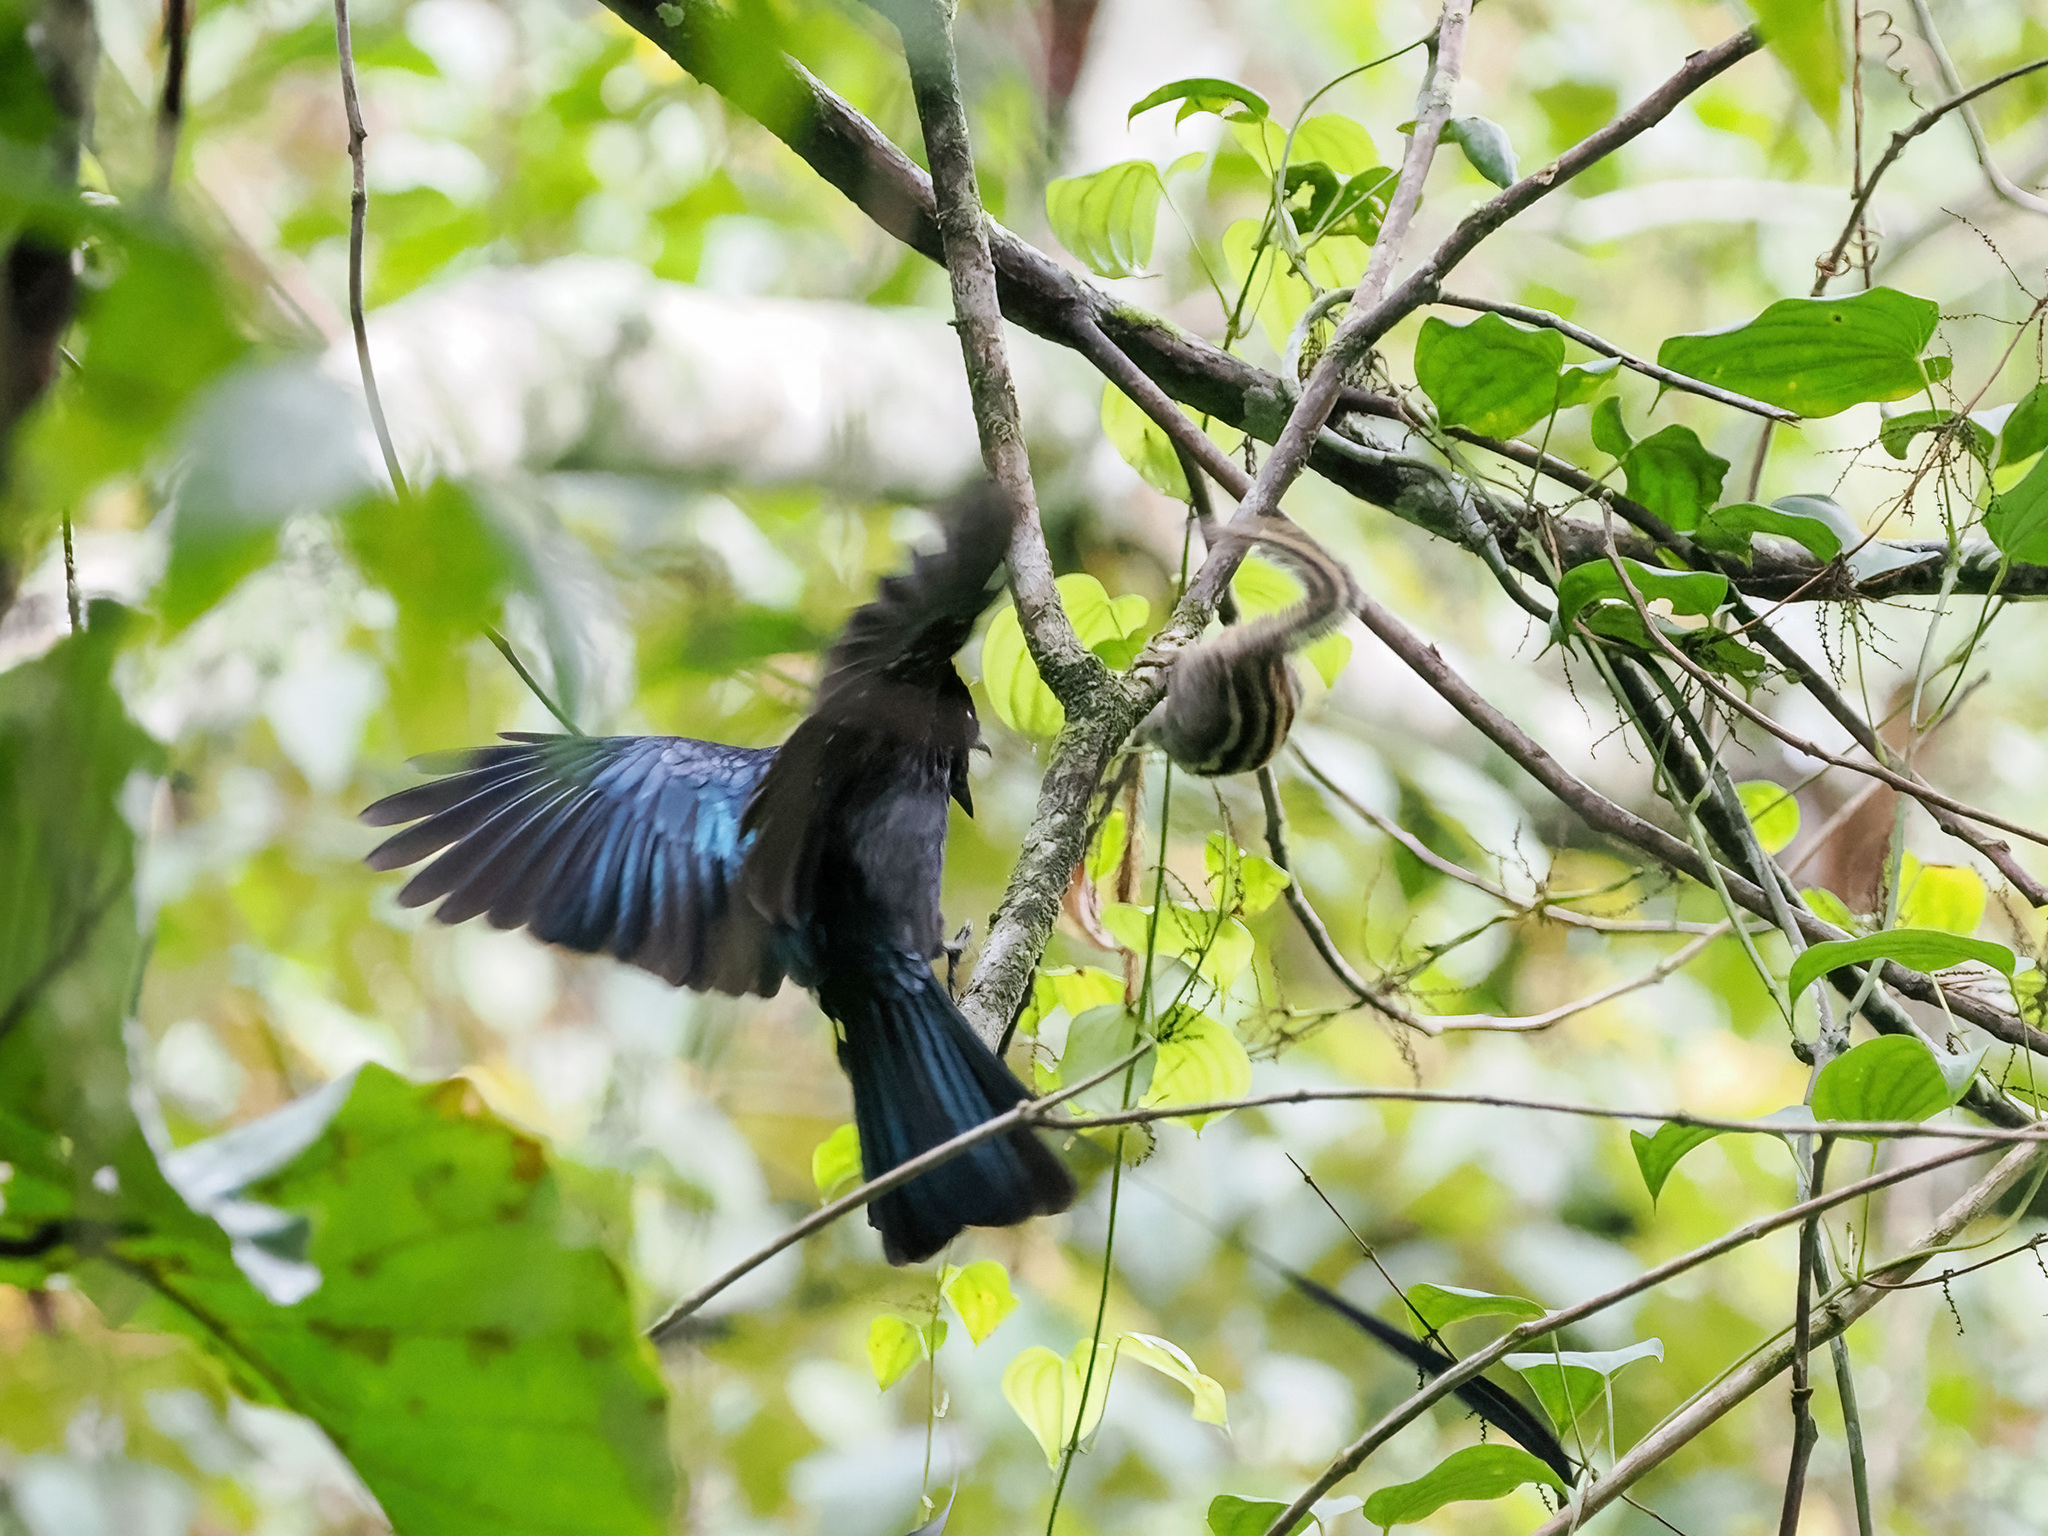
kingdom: Animalia
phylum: Chordata
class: Aves
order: Passeriformes
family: Dicruridae
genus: Dicrurus
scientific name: Dicrurus remifer
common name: Lesser racket-tailed drongo
